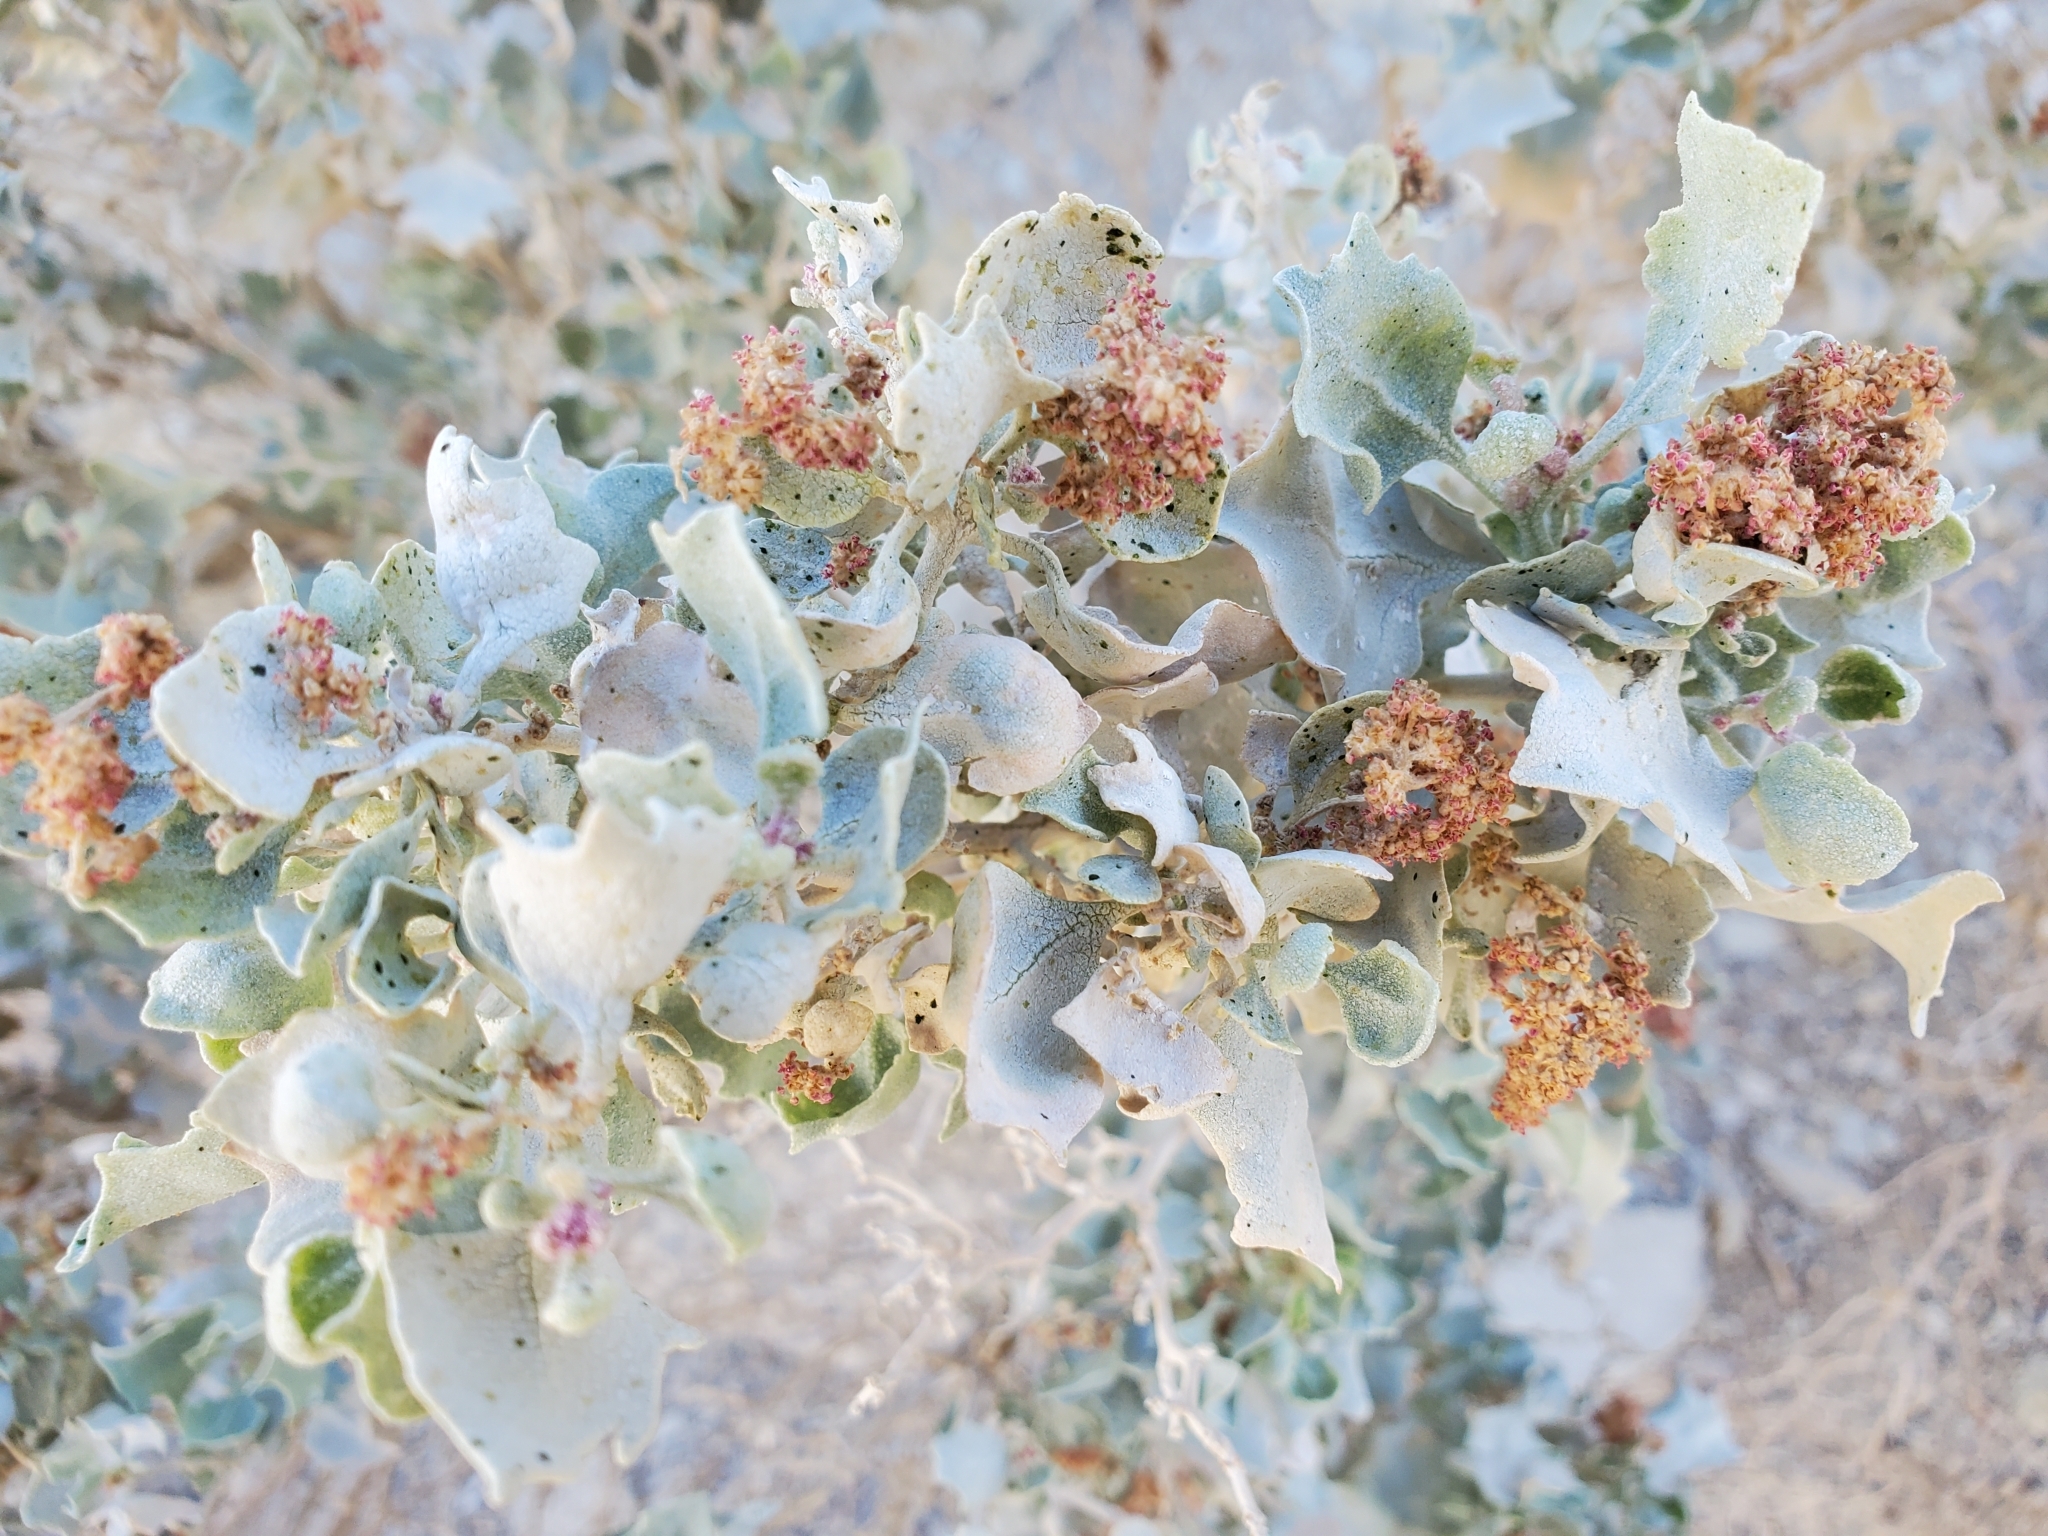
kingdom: Plantae
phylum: Tracheophyta
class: Magnoliopsida
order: Caryophyllales
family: Amaranthaceae
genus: Atriplex
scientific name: Atriplex hymenelytra
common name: Desert-holly
